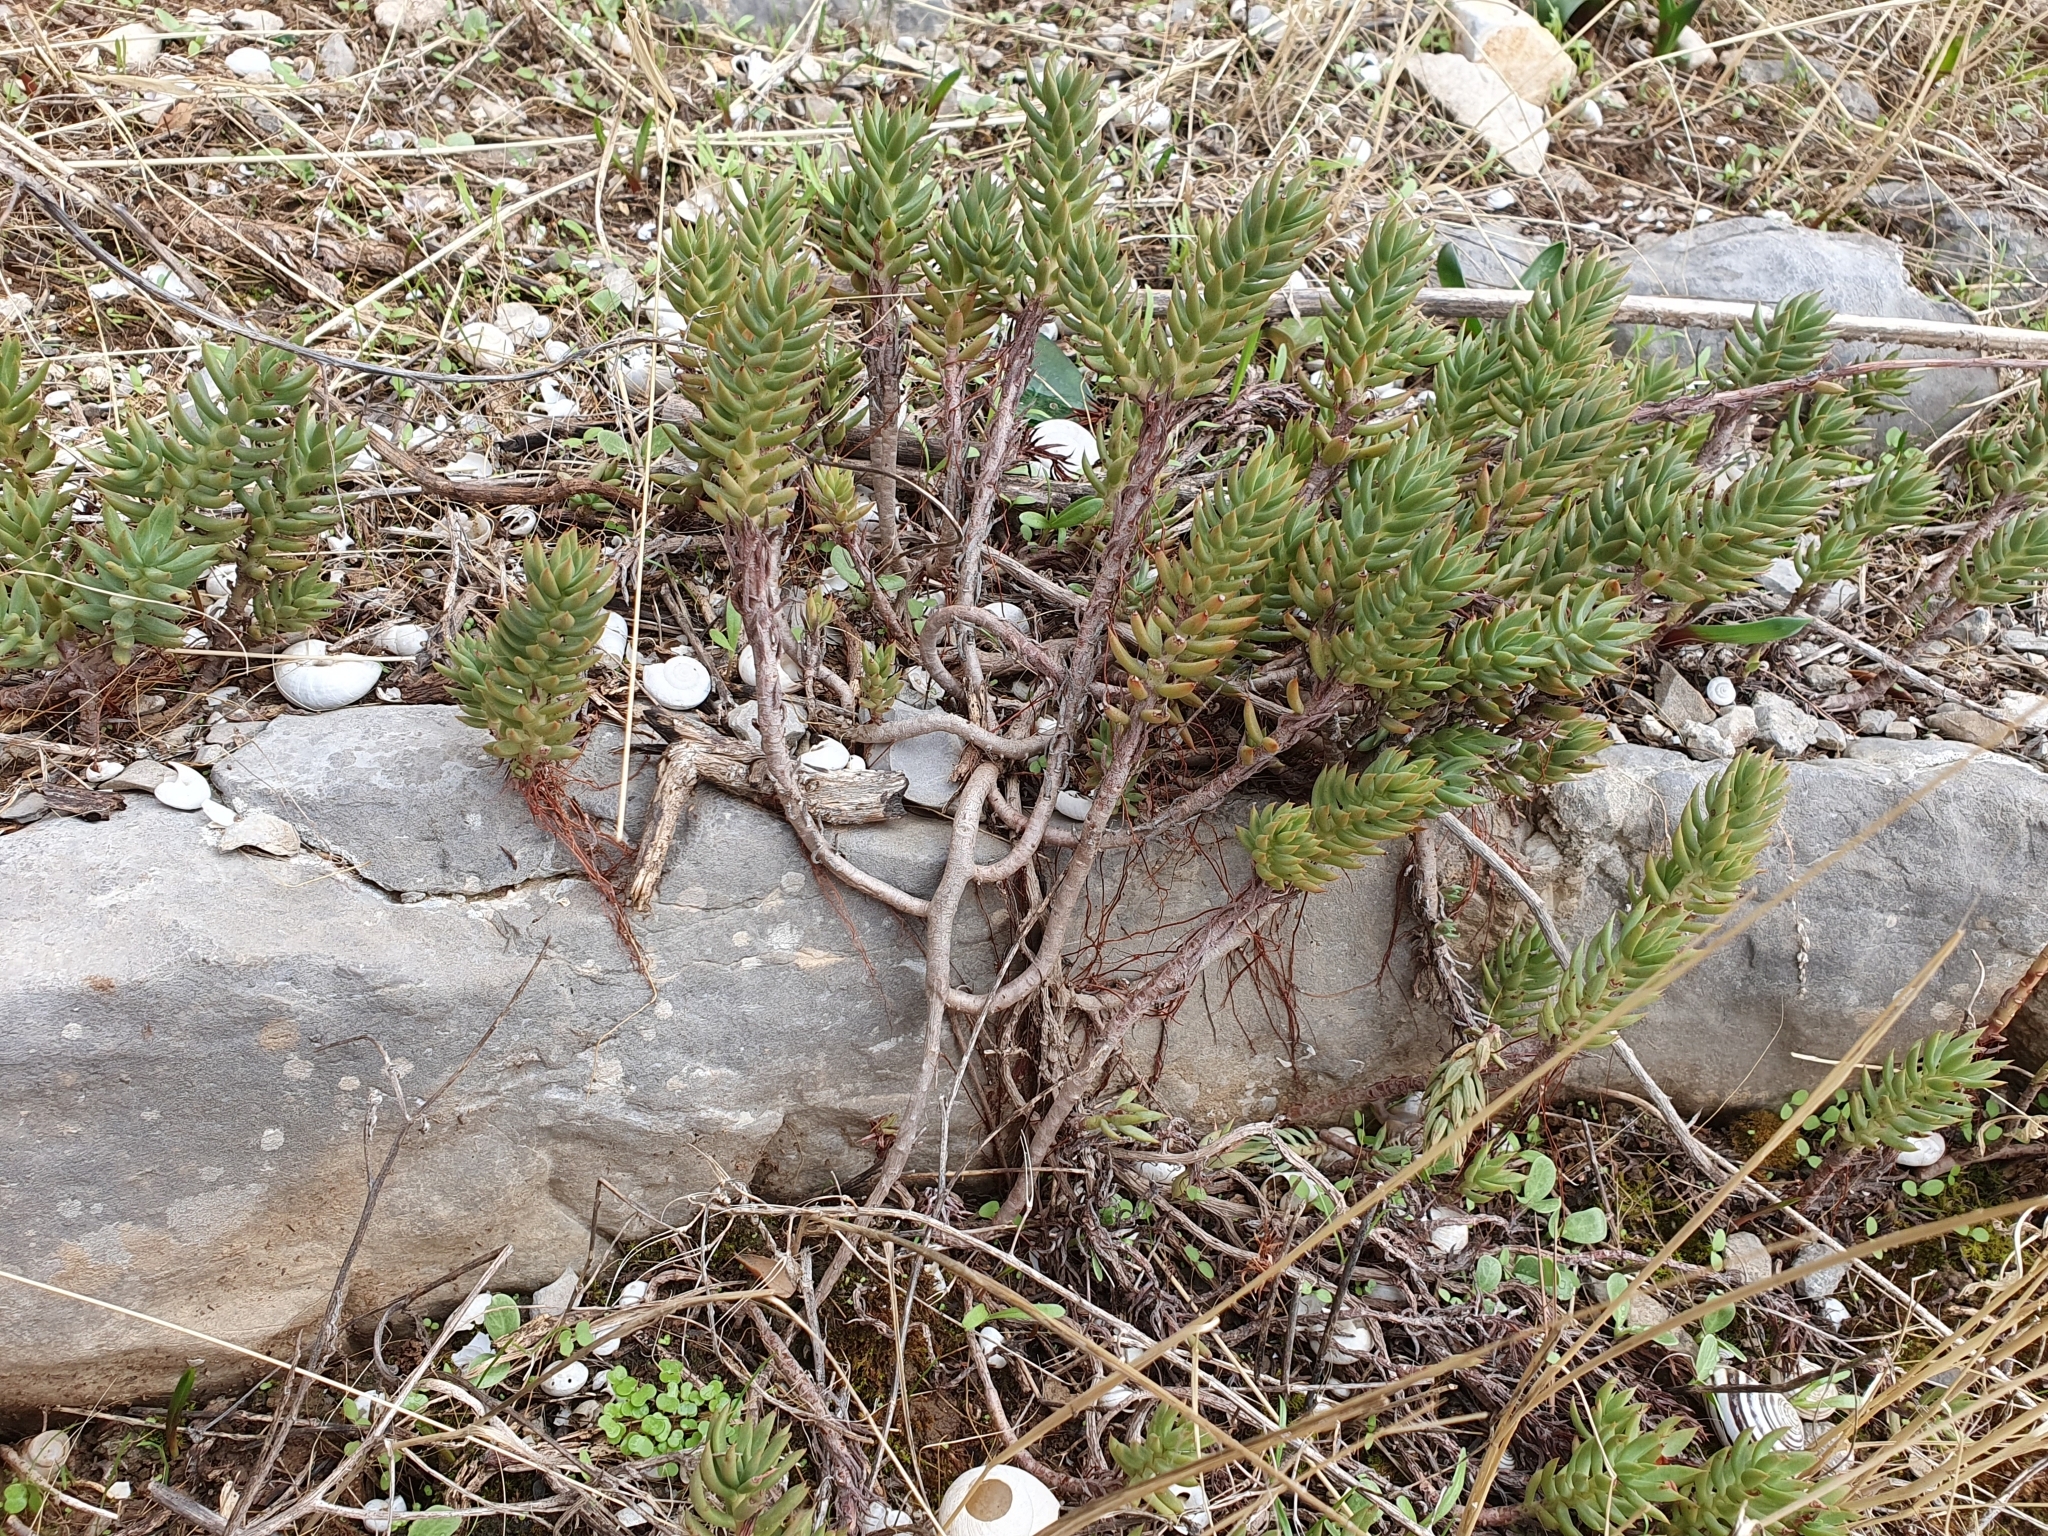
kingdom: Plantae
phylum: Tracheophyta
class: Magnoliopsida
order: Saxifragales
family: Crassulaceae
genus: Petrosedum
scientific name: Petrosedum sediforme
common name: Pale stonecrop
